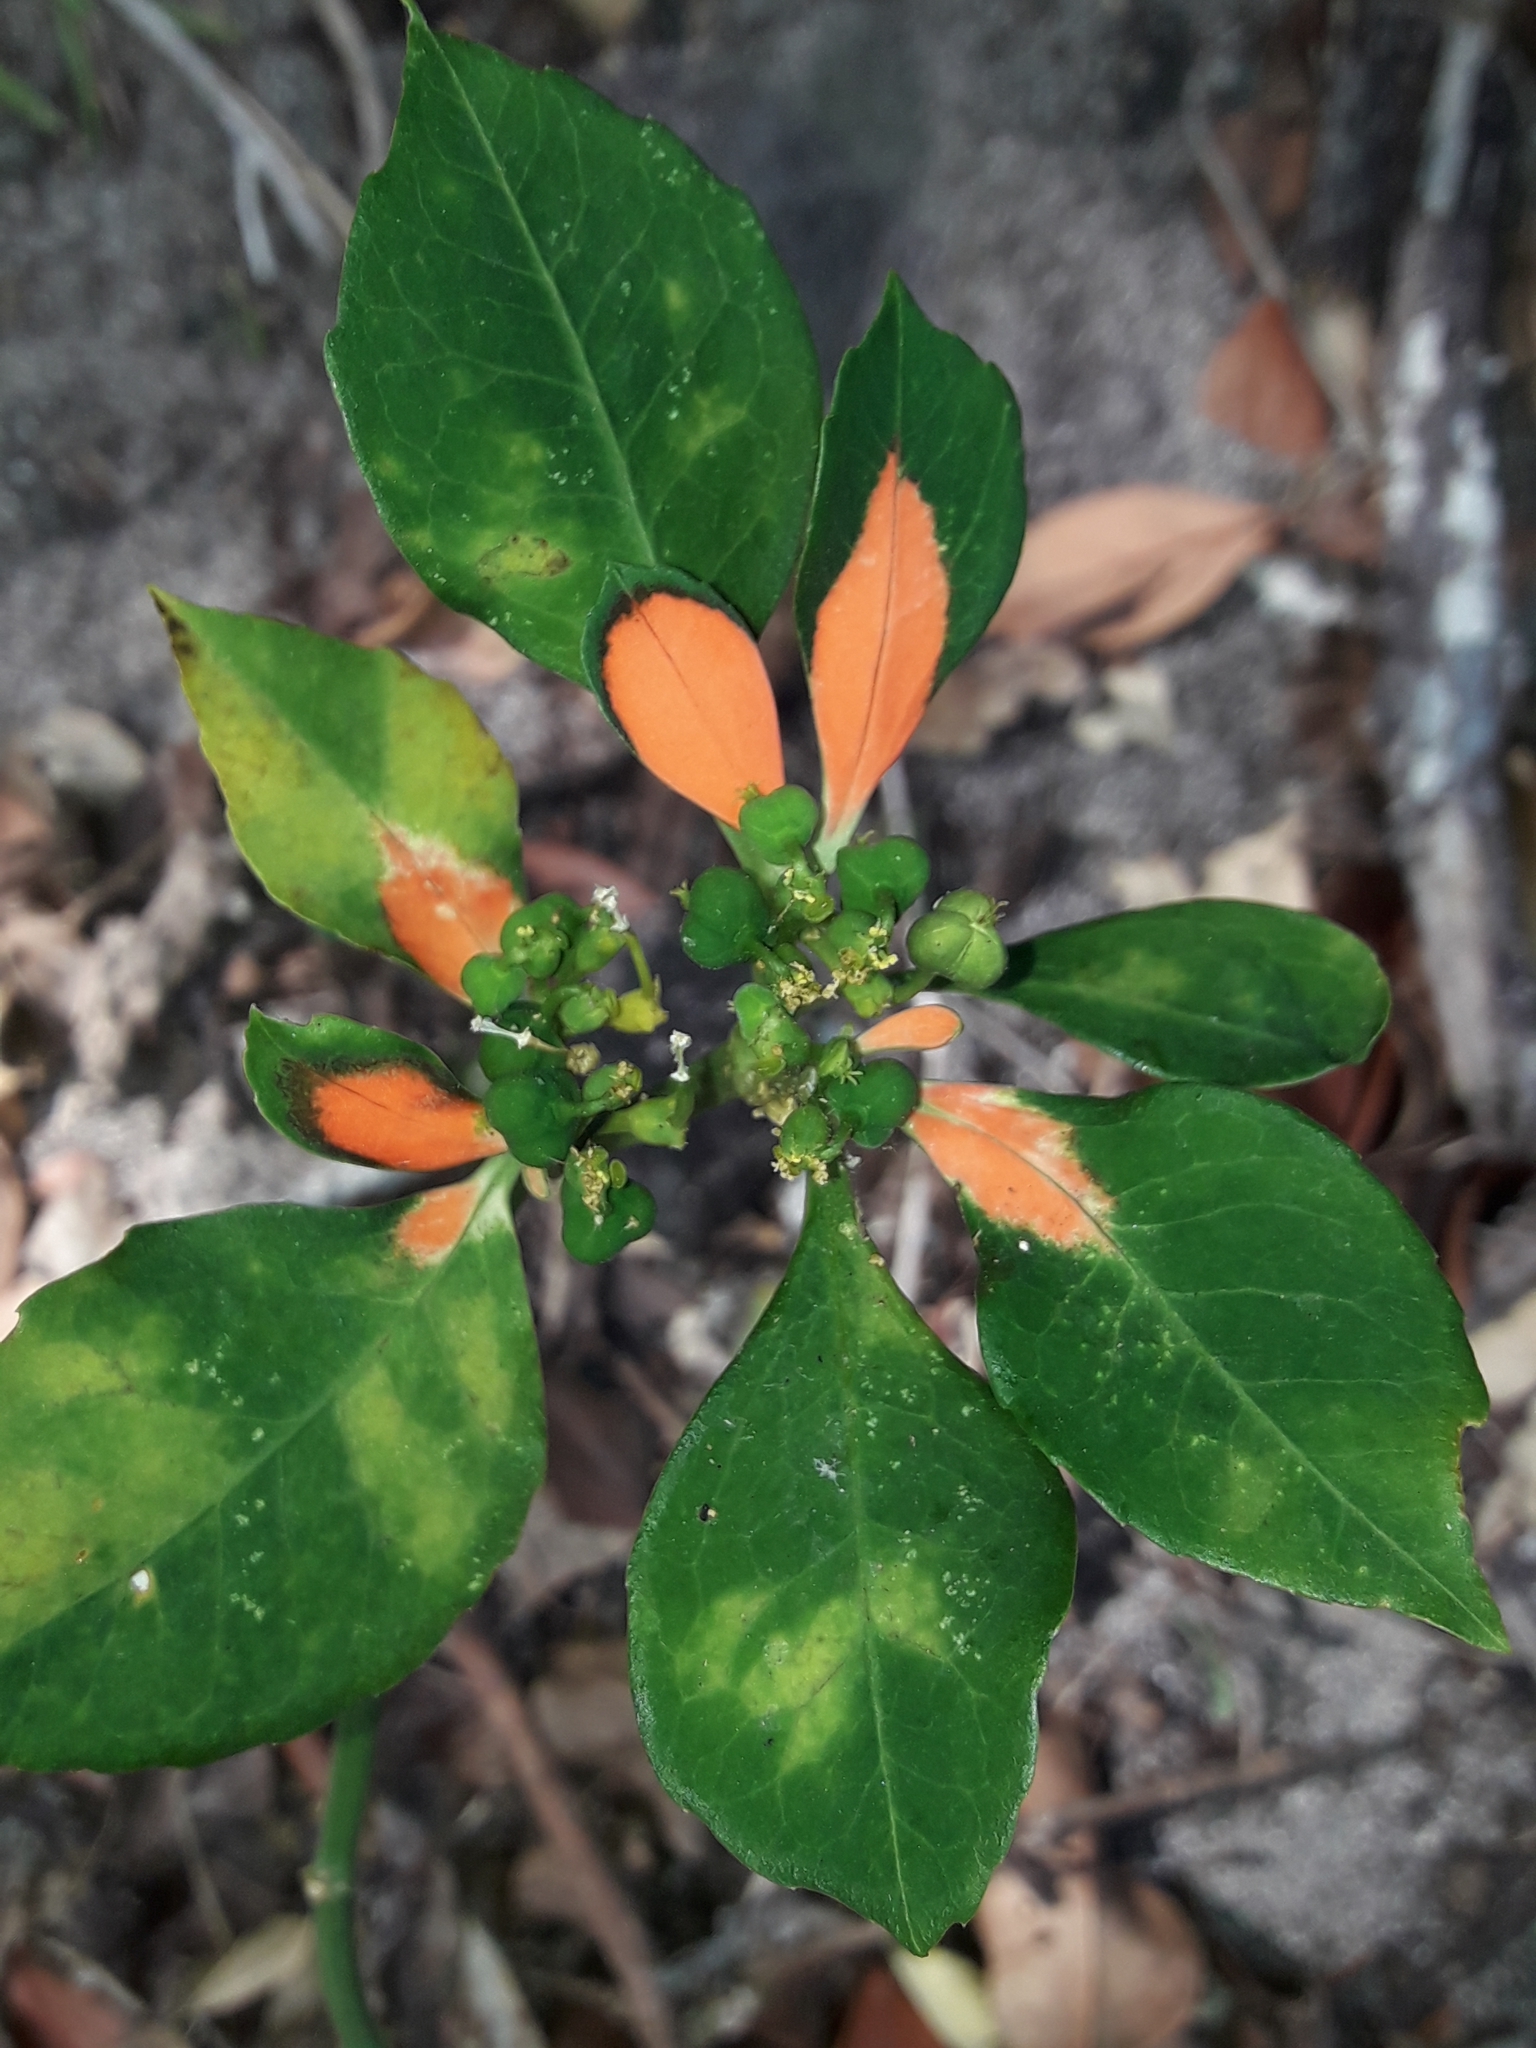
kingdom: Plantae
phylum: Tracheophyta
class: Magnoliopsida
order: Malpighiales
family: Euphorbiaceae
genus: Euphorbia
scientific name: Euphorbia heterophylla
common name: Mexican fireplant
